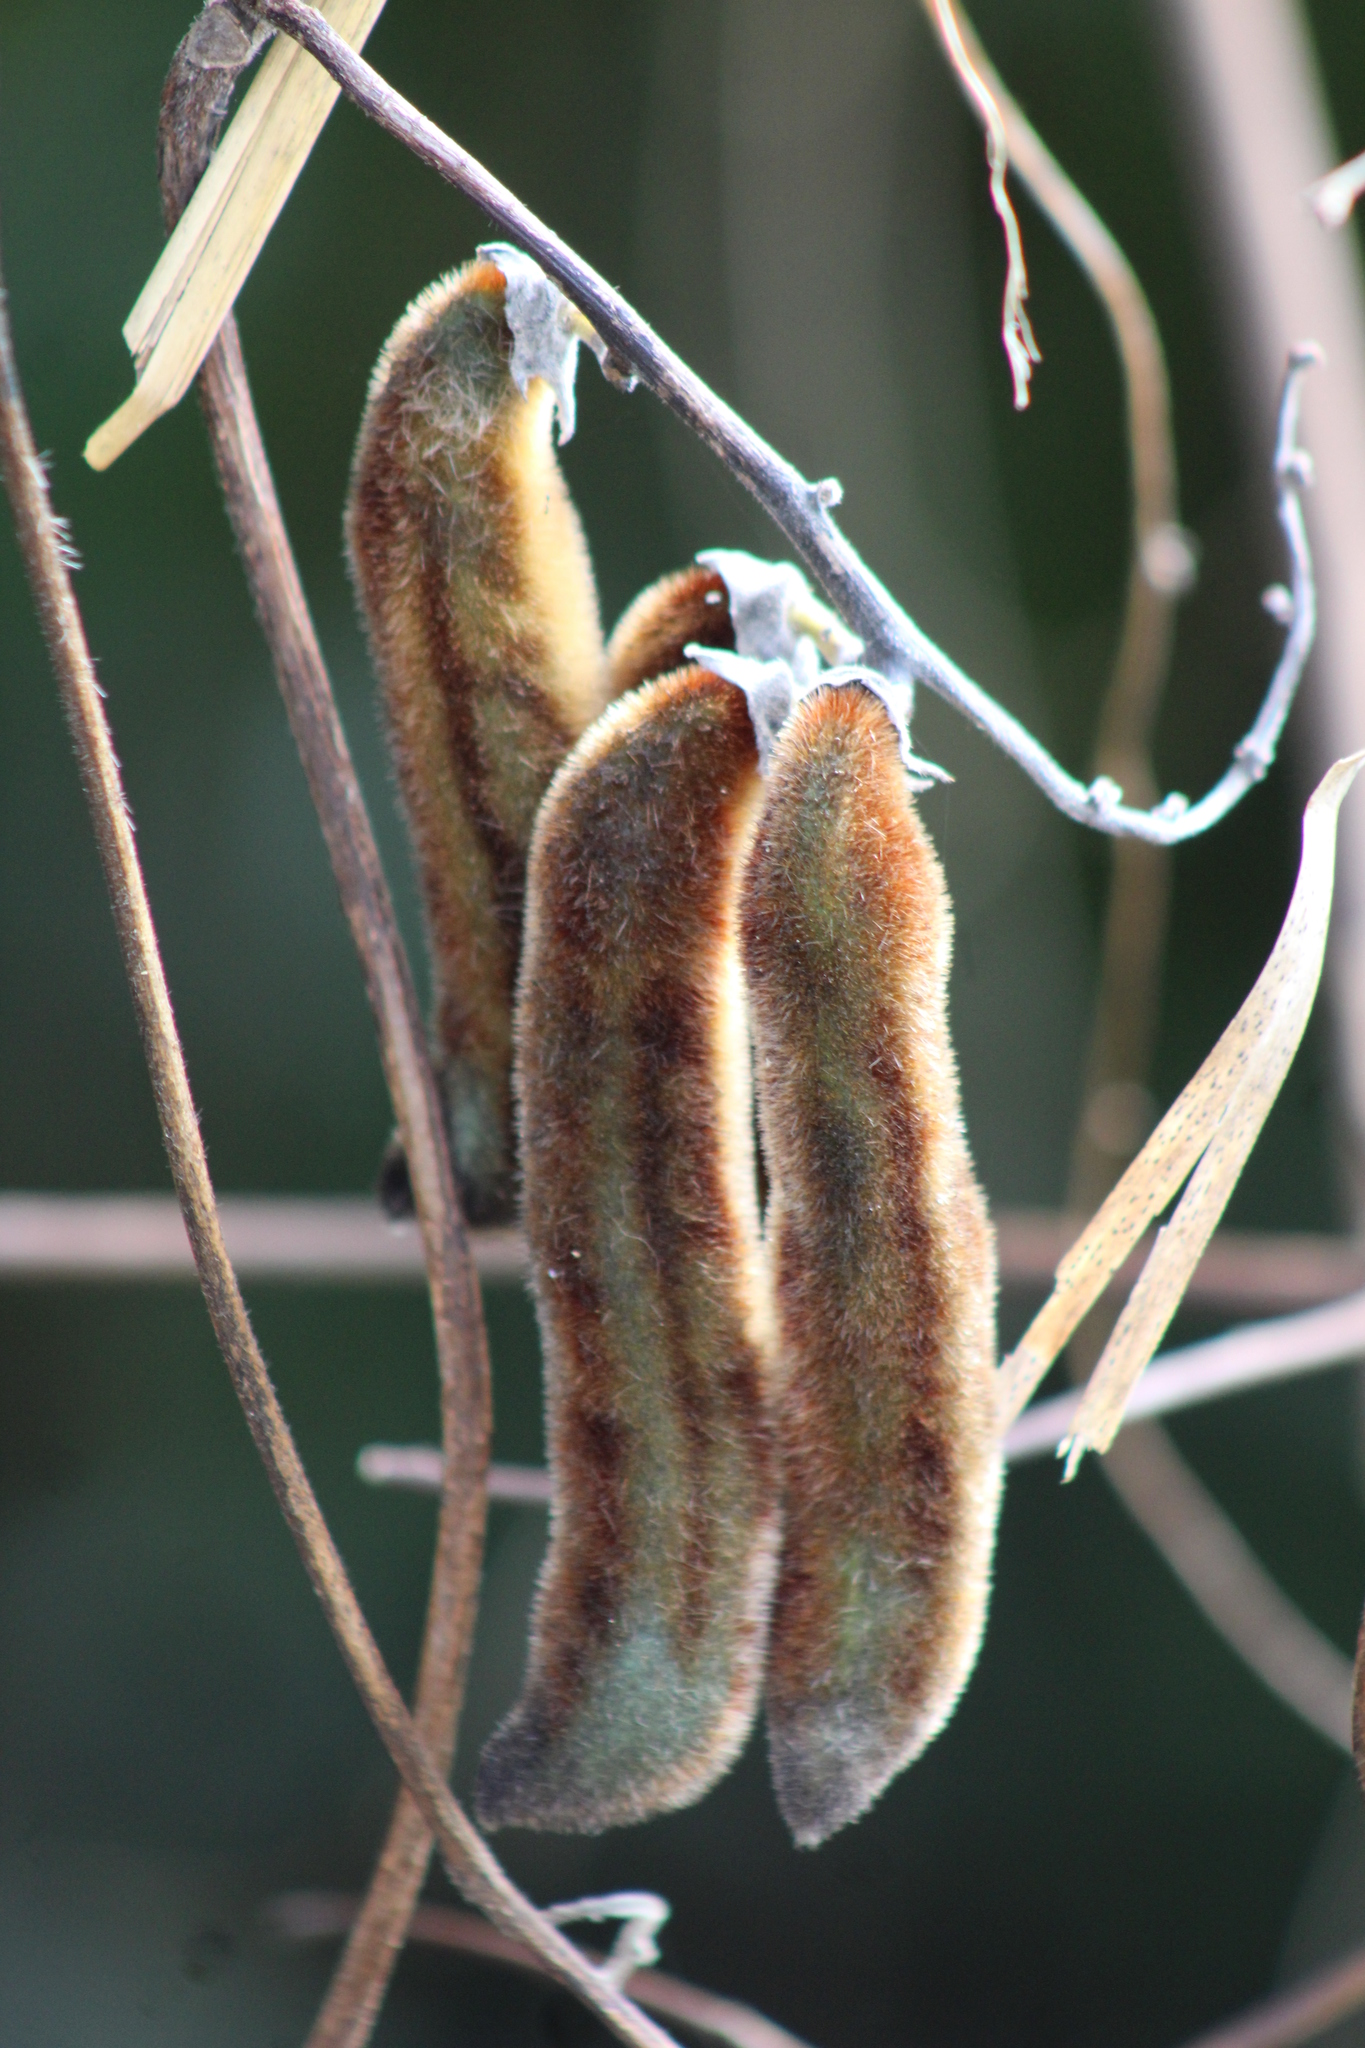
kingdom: Plantae
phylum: Tracheophyta
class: Magnoliopsida
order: Fabales
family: Fabaceae
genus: Mucuna
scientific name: Mucuna pruriens
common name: Cow-itch
